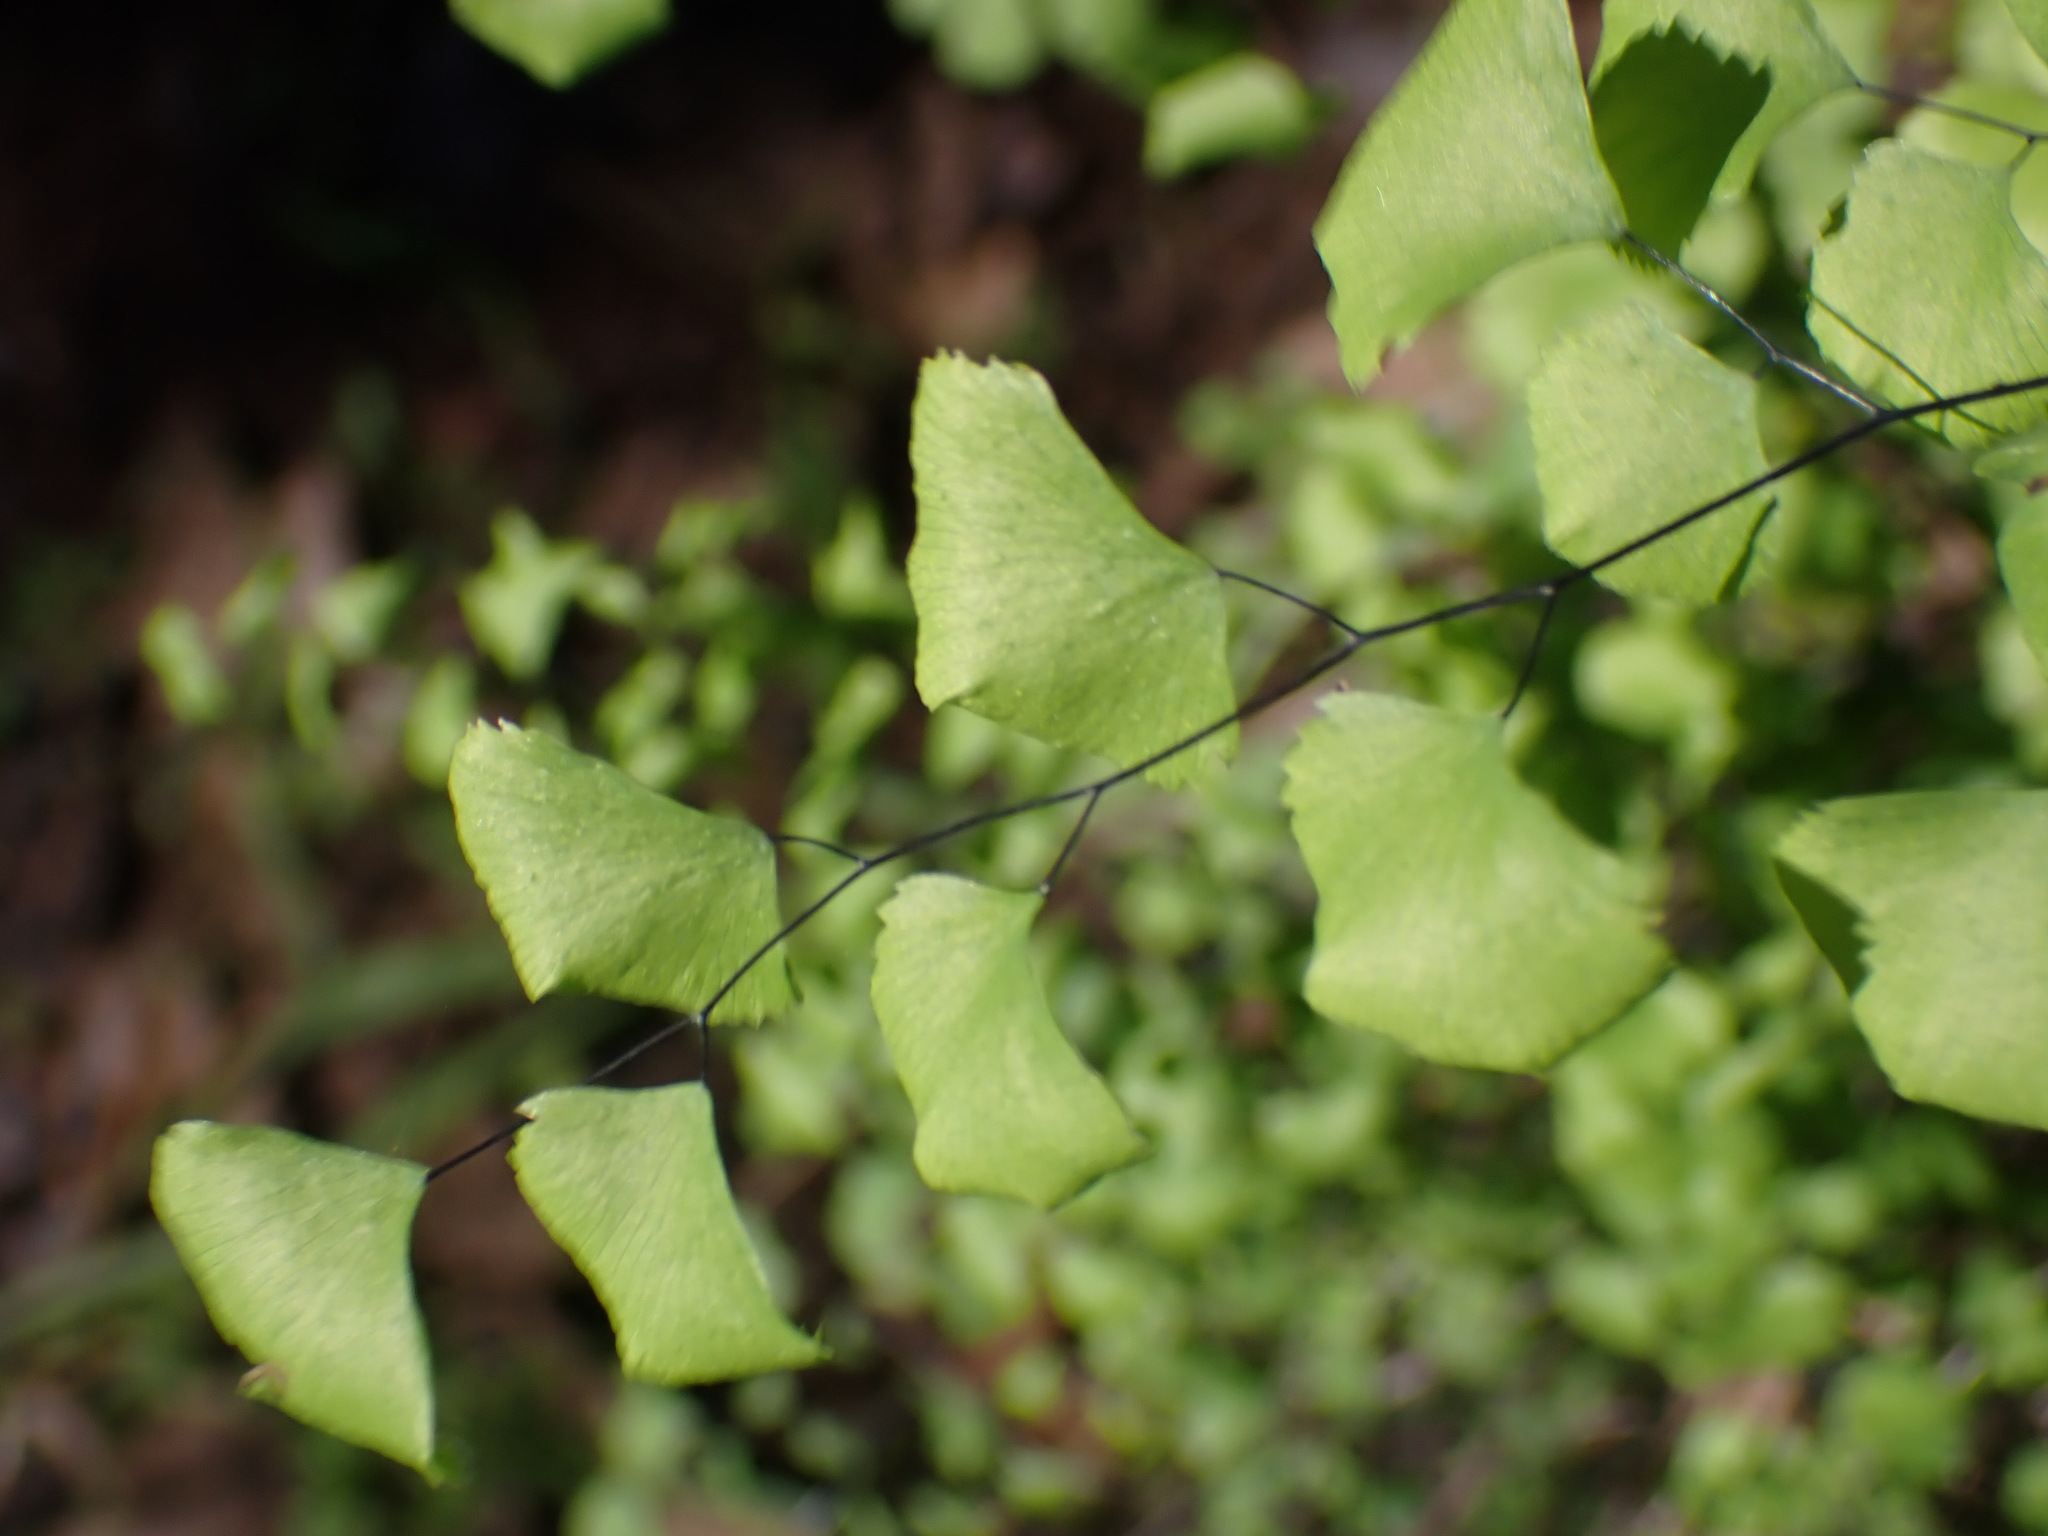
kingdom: Plantae
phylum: Tracheophyta
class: Polypodiopsida
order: Polypodiales
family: Pteridaceae
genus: Adiantum
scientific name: Adiantum jordanii
